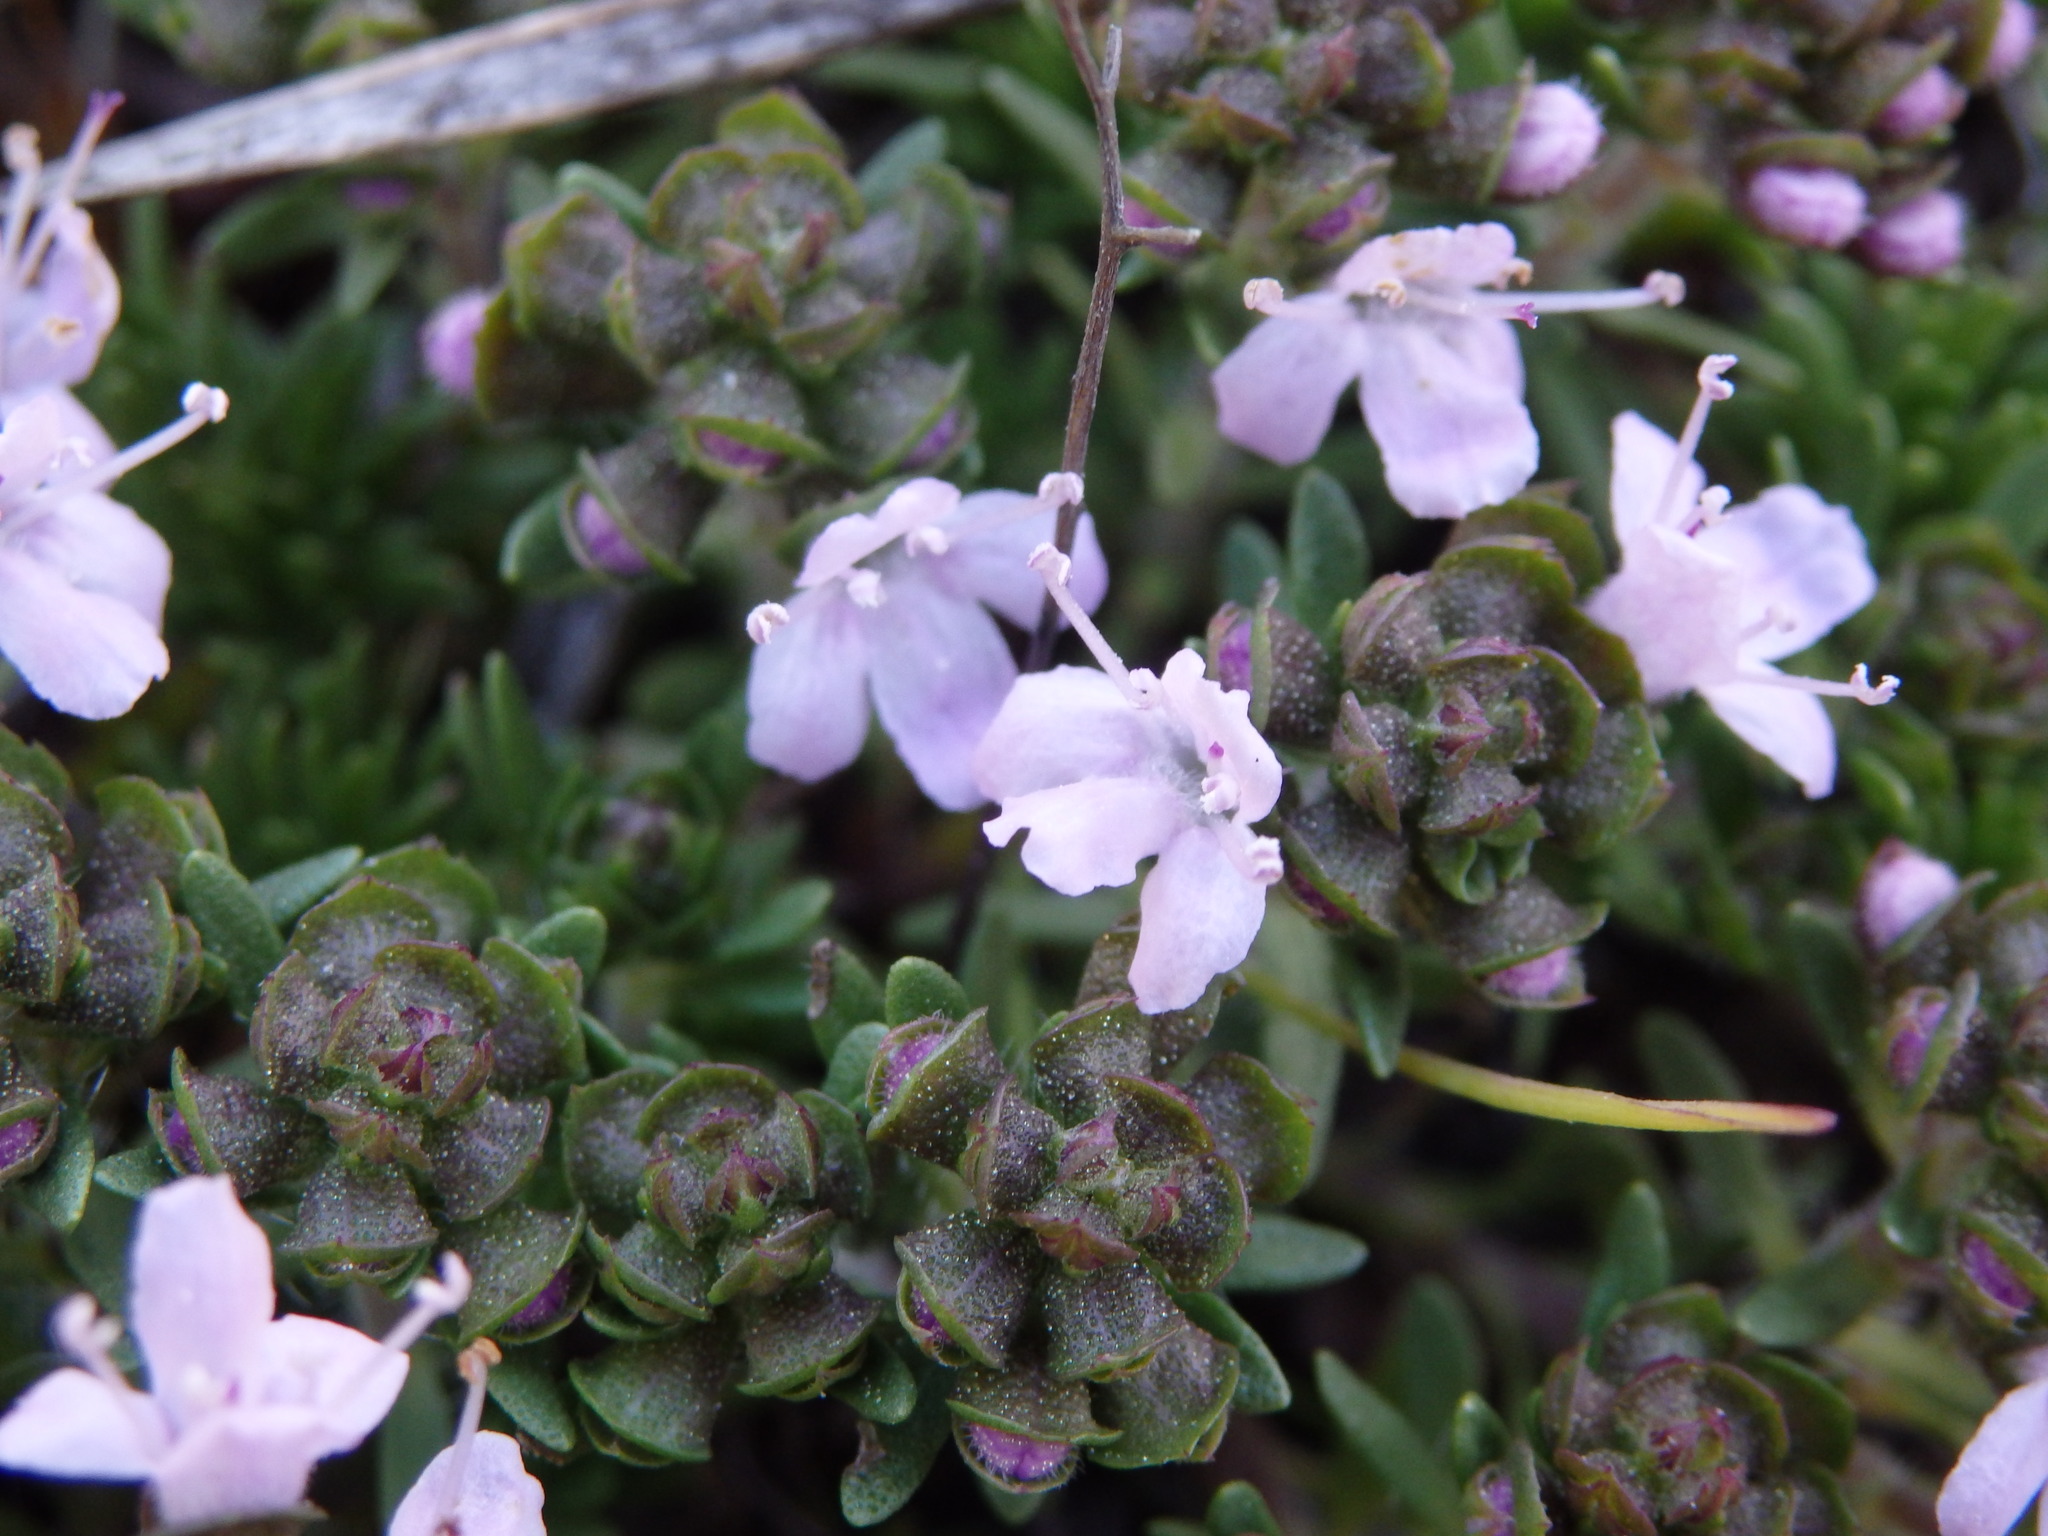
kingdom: Plantae
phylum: Tracheophyta
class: Magnoliopsida
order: Lamiales
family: Lamiaceae
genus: Thymus
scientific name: Thymus caespititius
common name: Azores thyme
